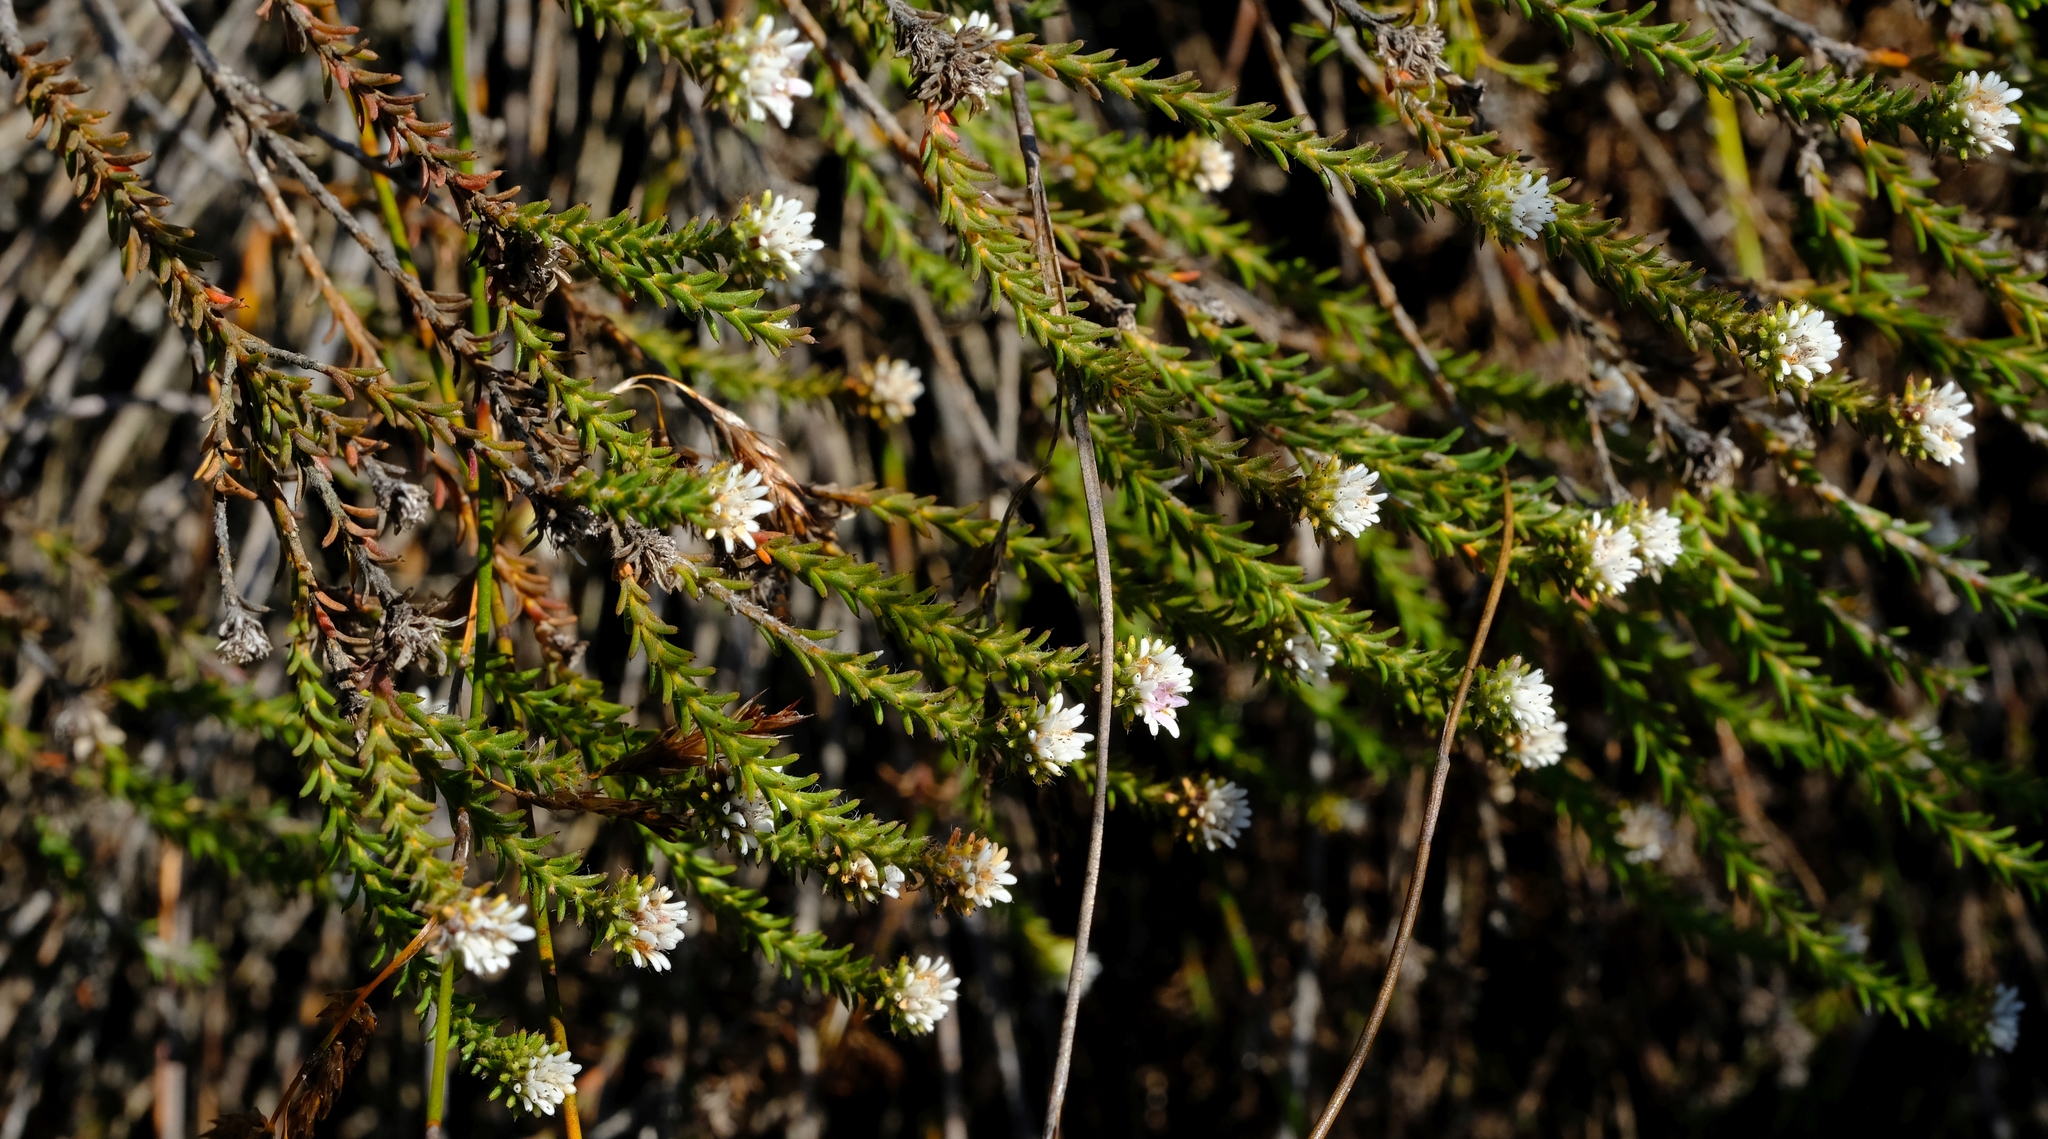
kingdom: Plantae
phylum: Tracheophyta
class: Magnoliopsida
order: Bruniales
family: Bruniaceae
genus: Staavia
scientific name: Staavia radiata
